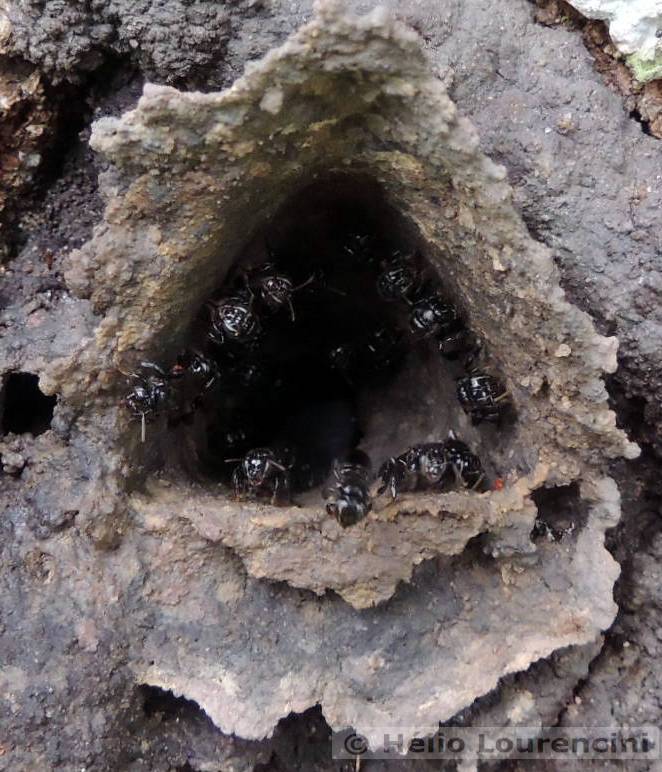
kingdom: Animalia
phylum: Arthropoda
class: Insecta
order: Hymenoptera
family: Apidae
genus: Partamona
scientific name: Partamona helleri
